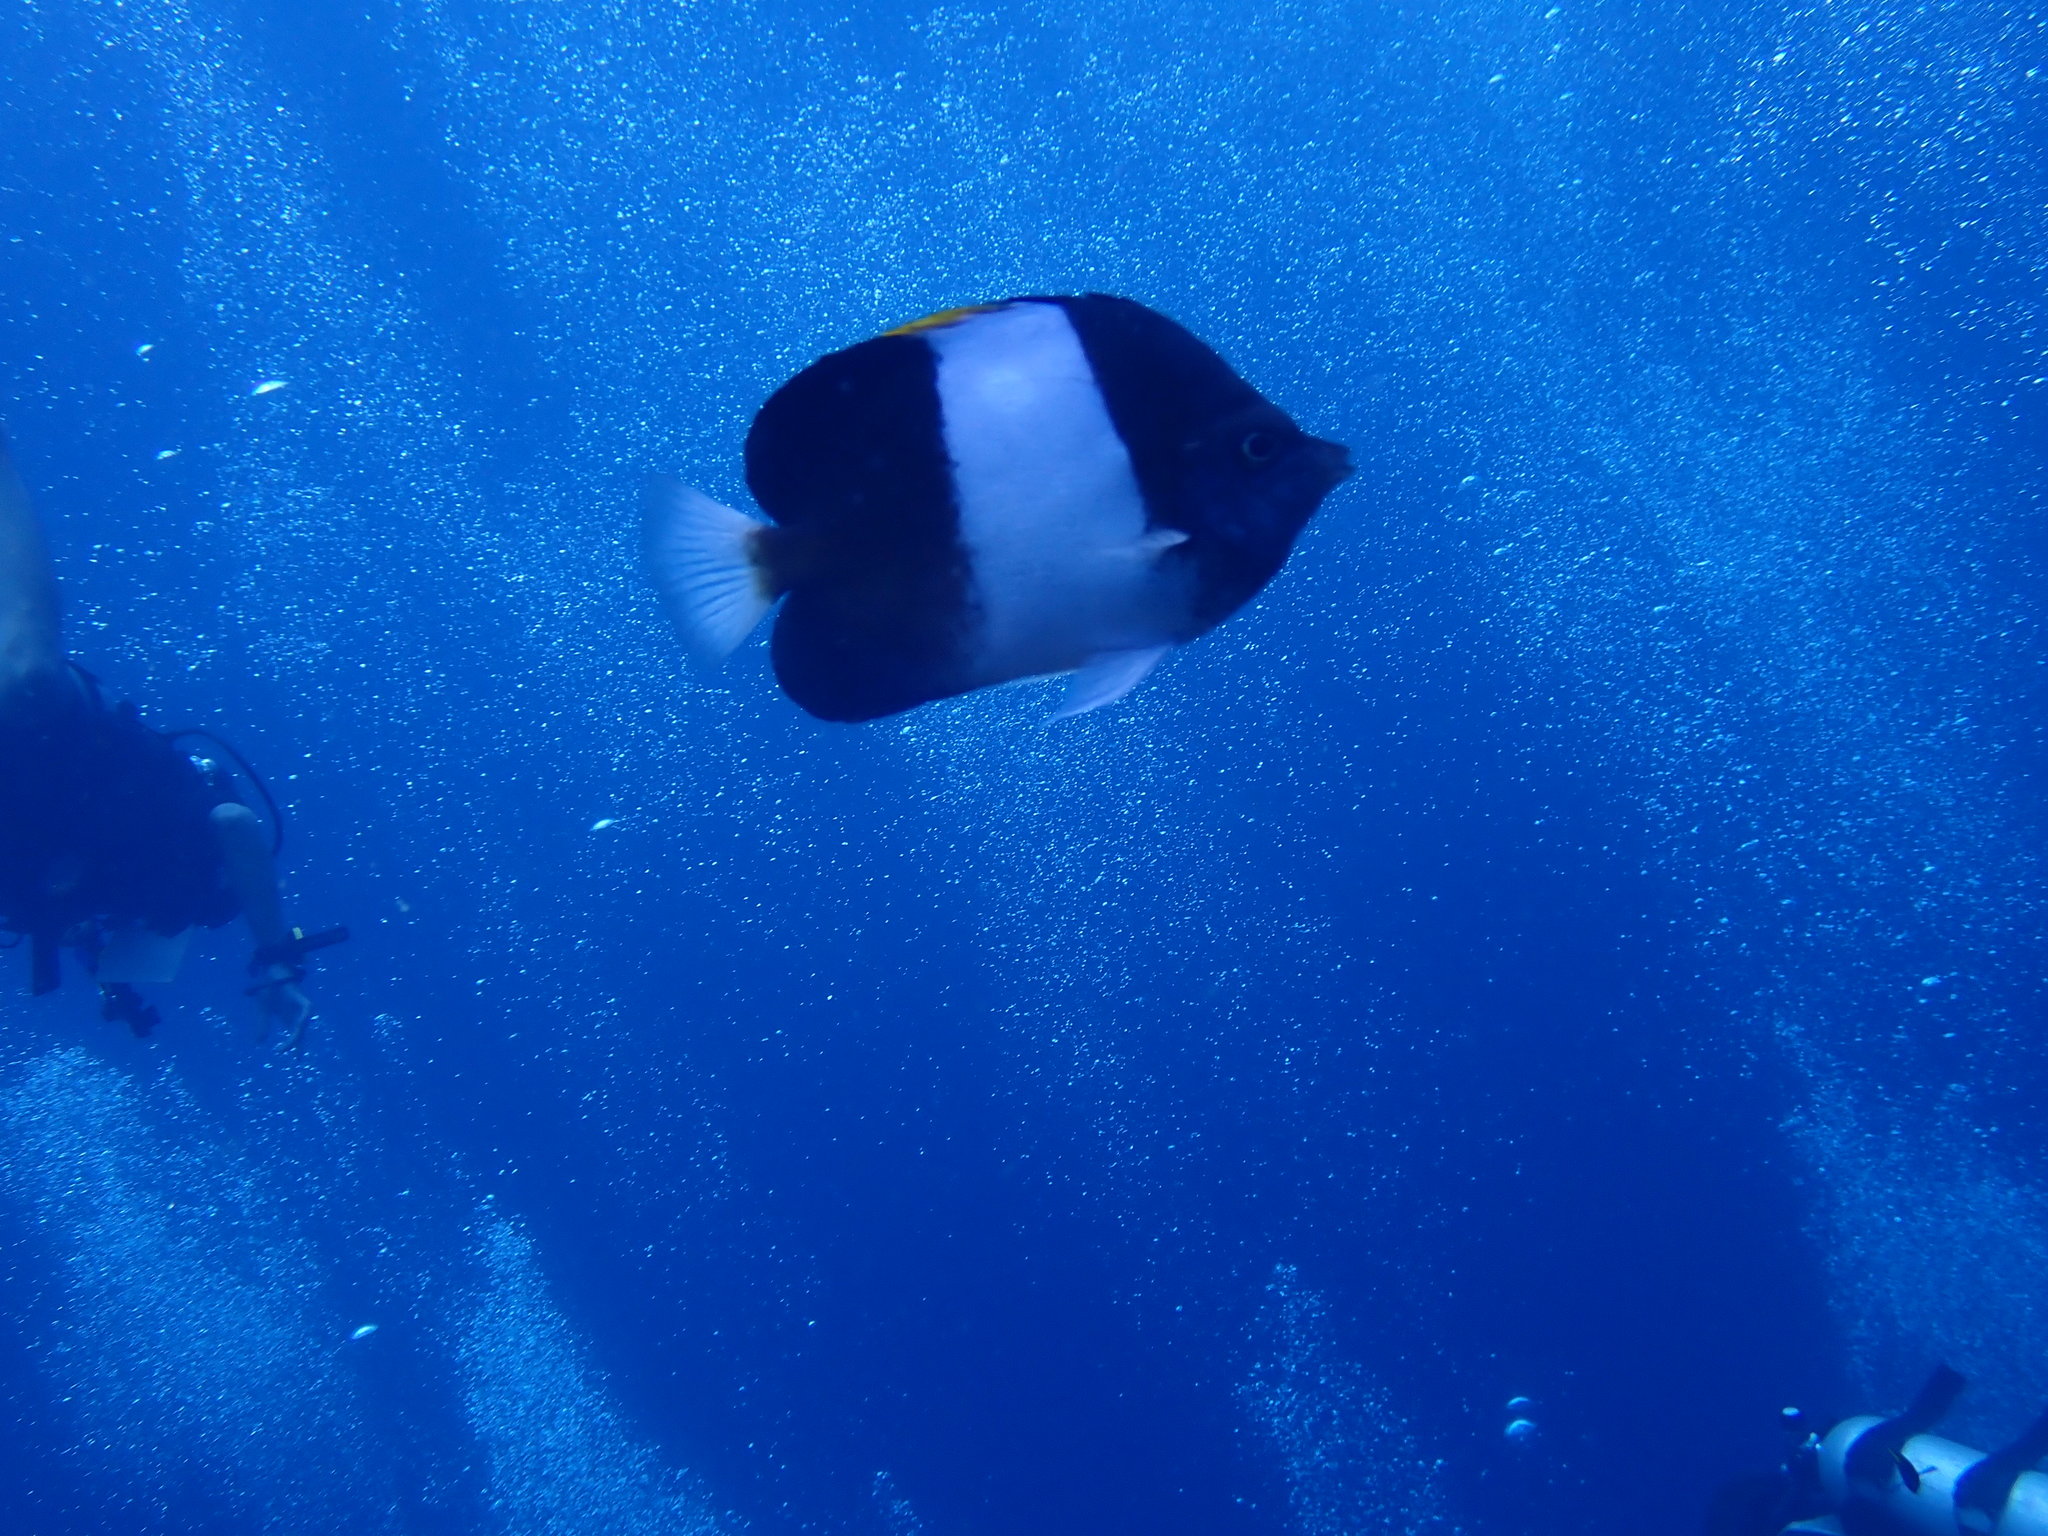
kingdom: Animalia
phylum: Chordata
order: Perciformes
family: Chaetodontidae
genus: Hemitaurichthys
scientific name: Hemitaurichthys zoster
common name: Brown-and-white butterflyfish
